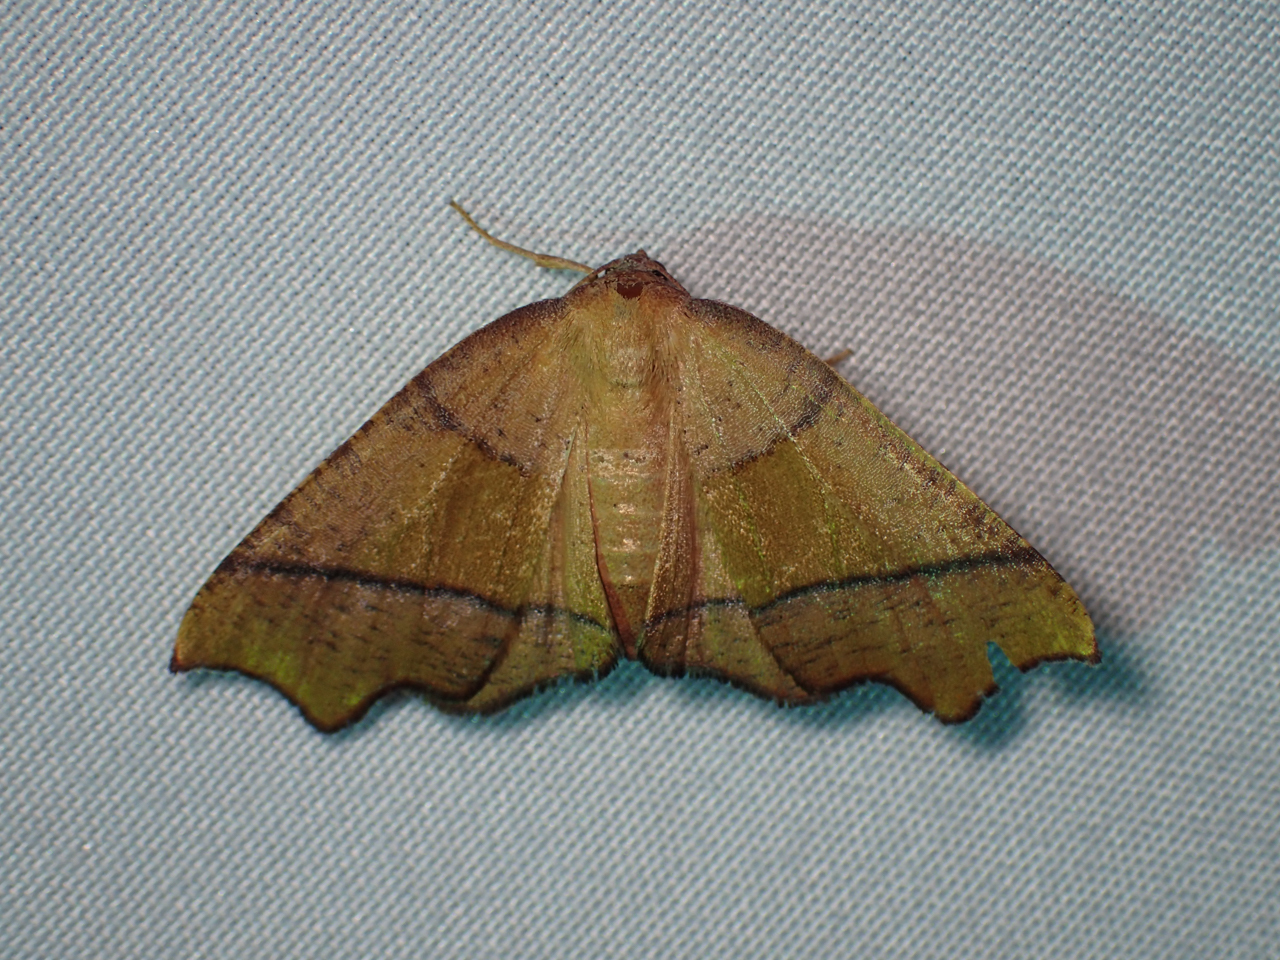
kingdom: Animalia
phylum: Arthropoda
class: Insecta
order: Lepidoptera
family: Geometridae
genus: Plagodis
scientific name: Plagodis phlogosaria
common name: Straight-lined plagodis
